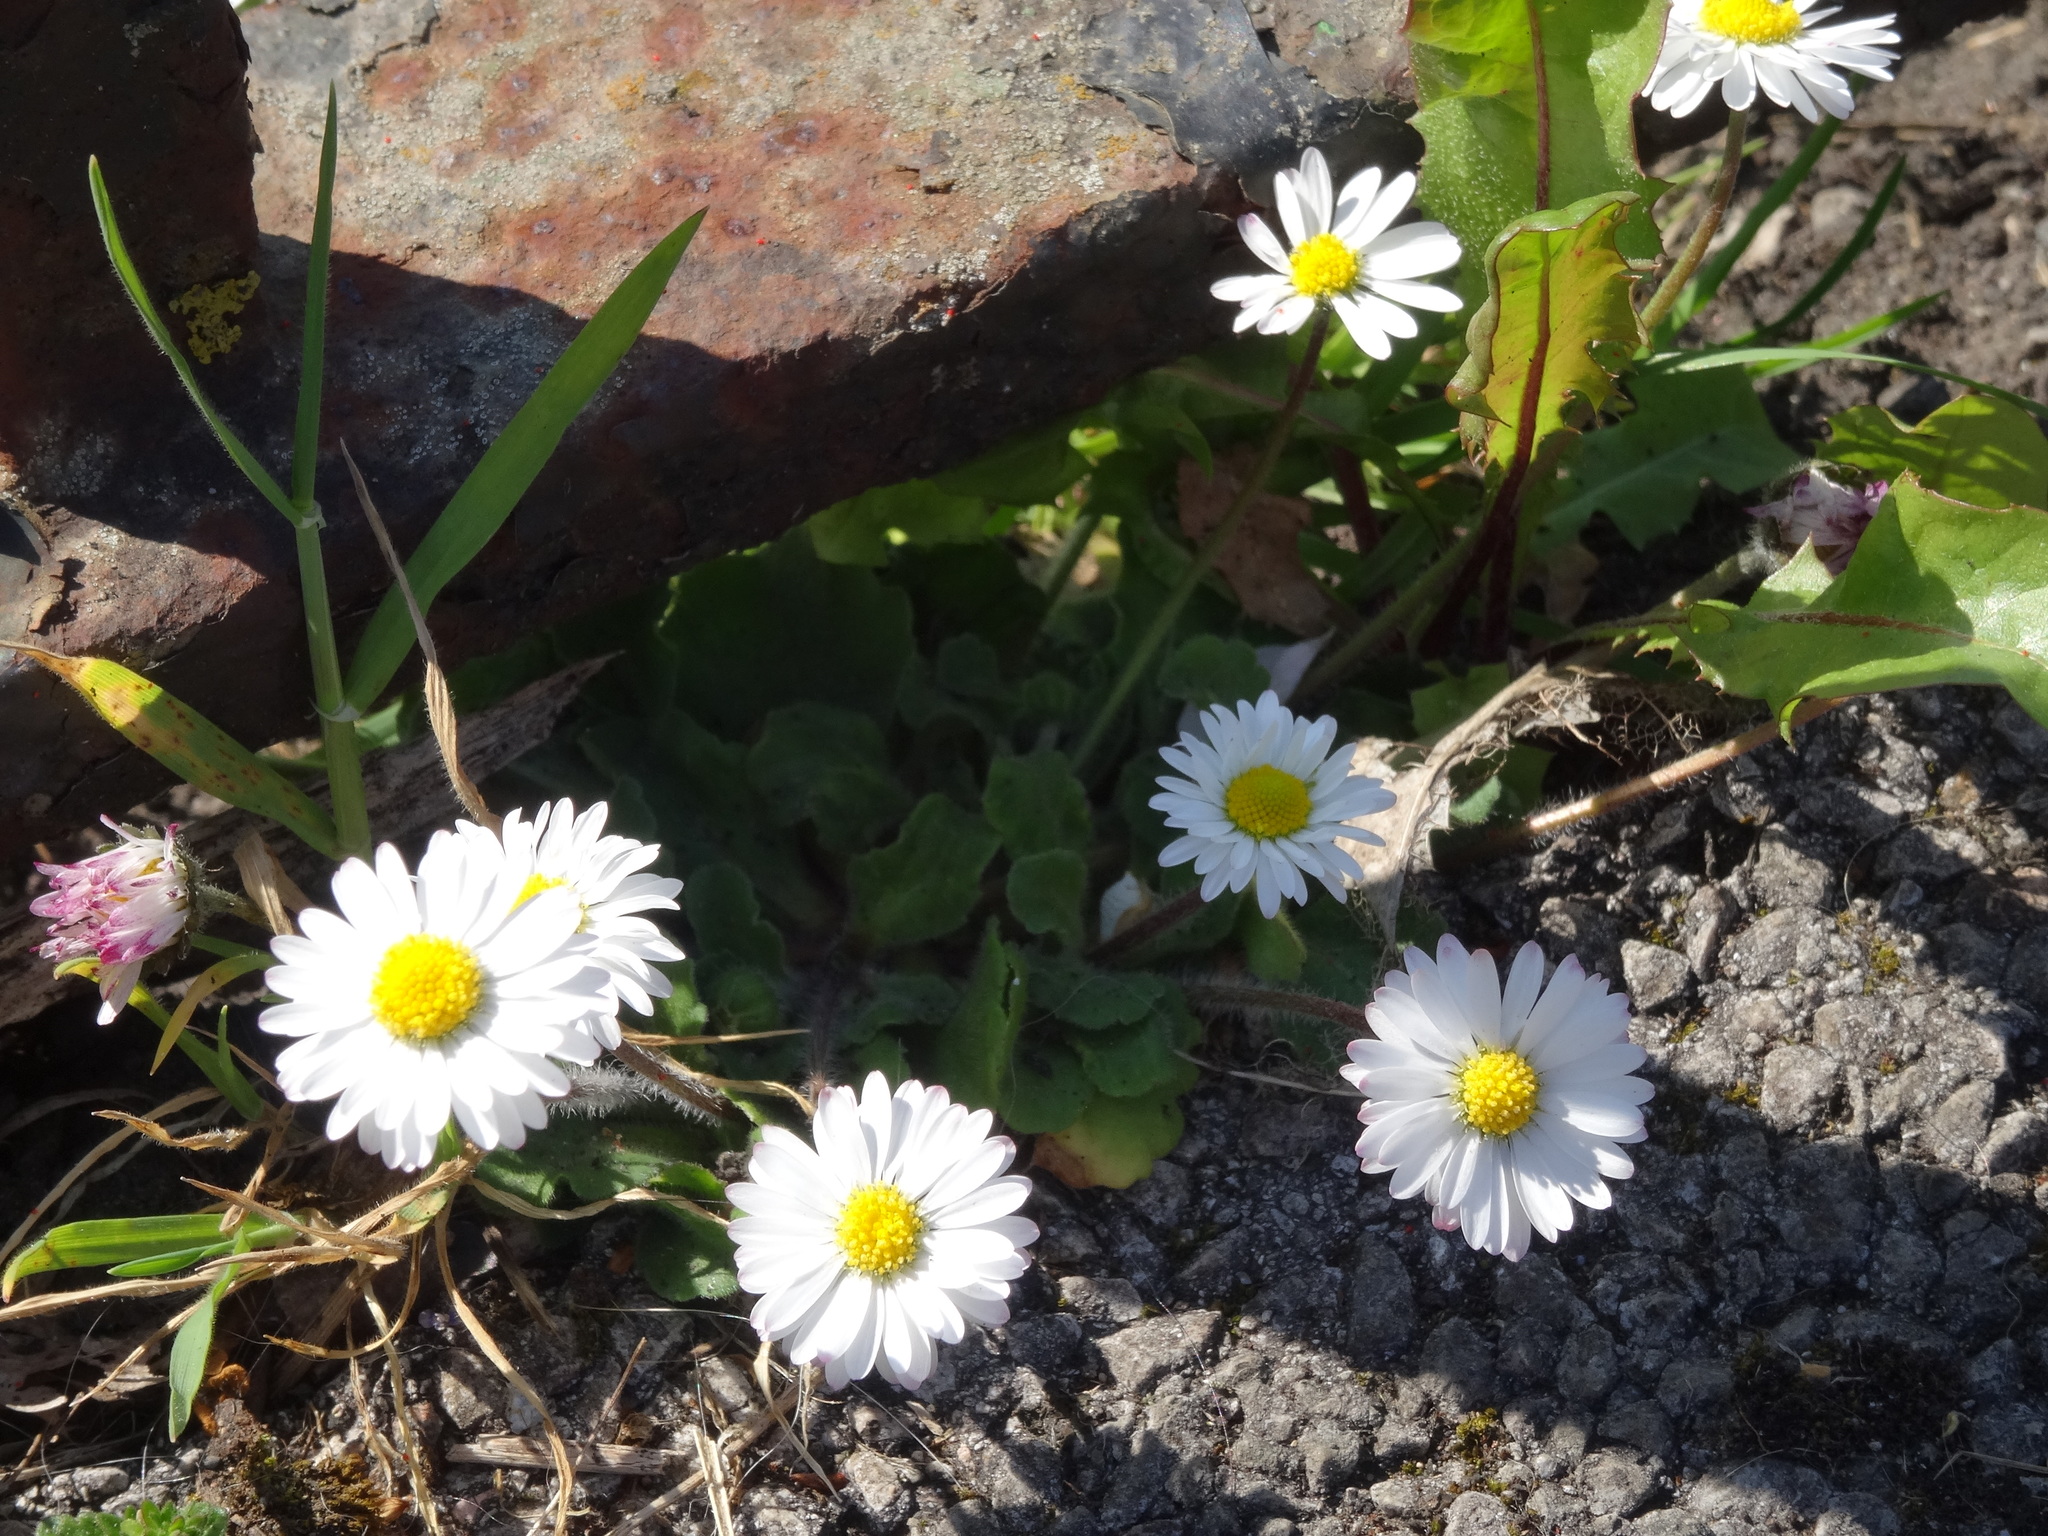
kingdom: Plantae
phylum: Tracheophyta
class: Magnoliopsida
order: Asterales
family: Asteraceae
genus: Bellis
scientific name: Bellis perennis
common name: Lawndaisy
